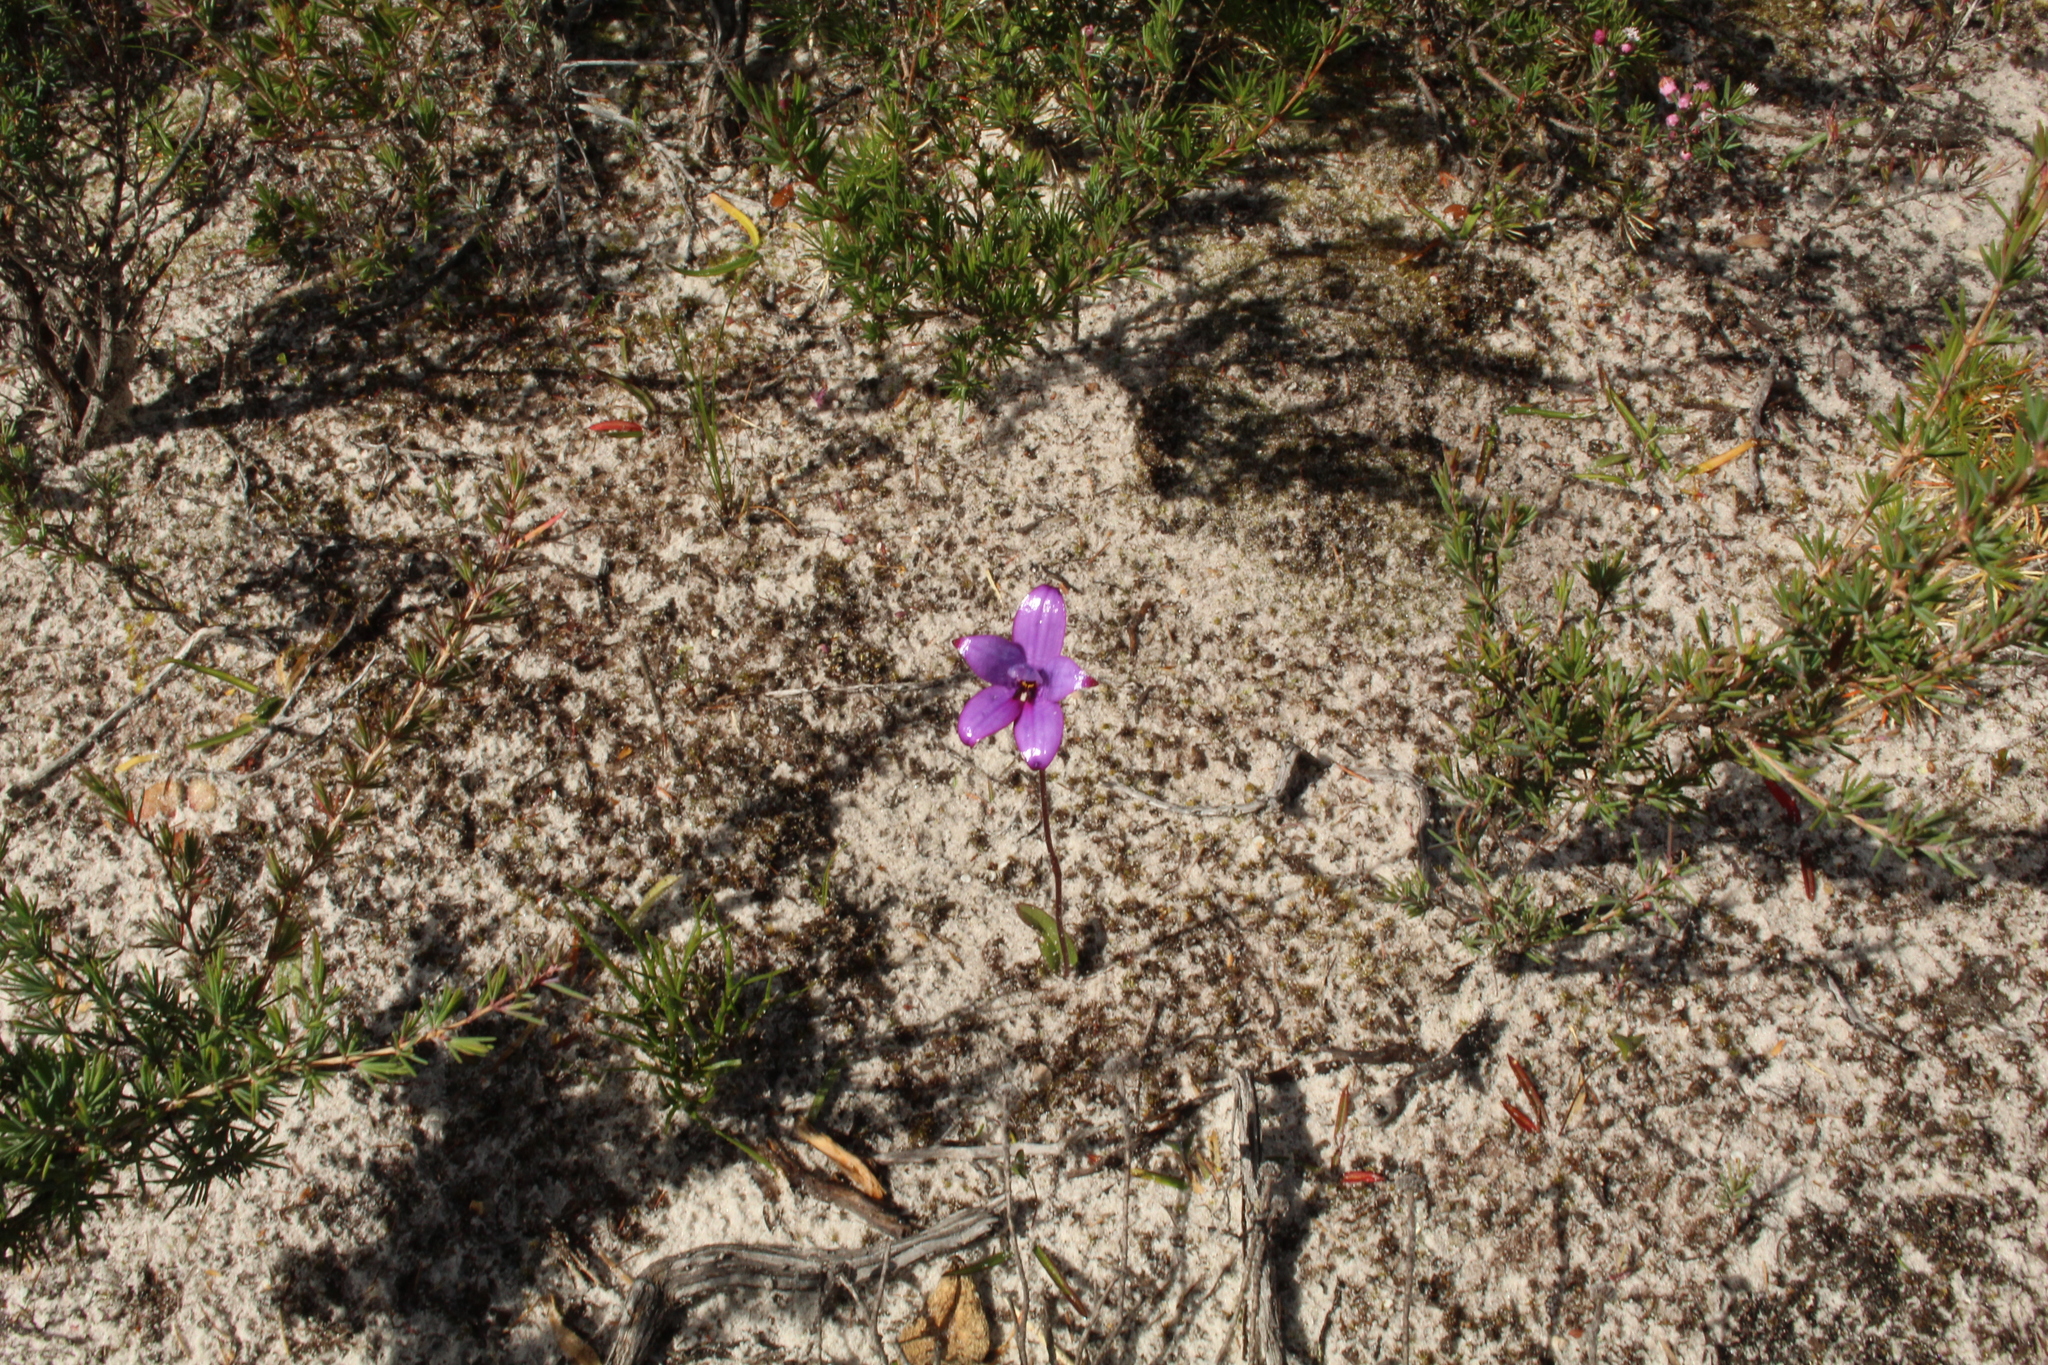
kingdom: Plantae
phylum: Tracheophyta
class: Liliopsida
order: Asparagales
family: Orchidaceae
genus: Caladenia
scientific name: Caladenia brunonis
